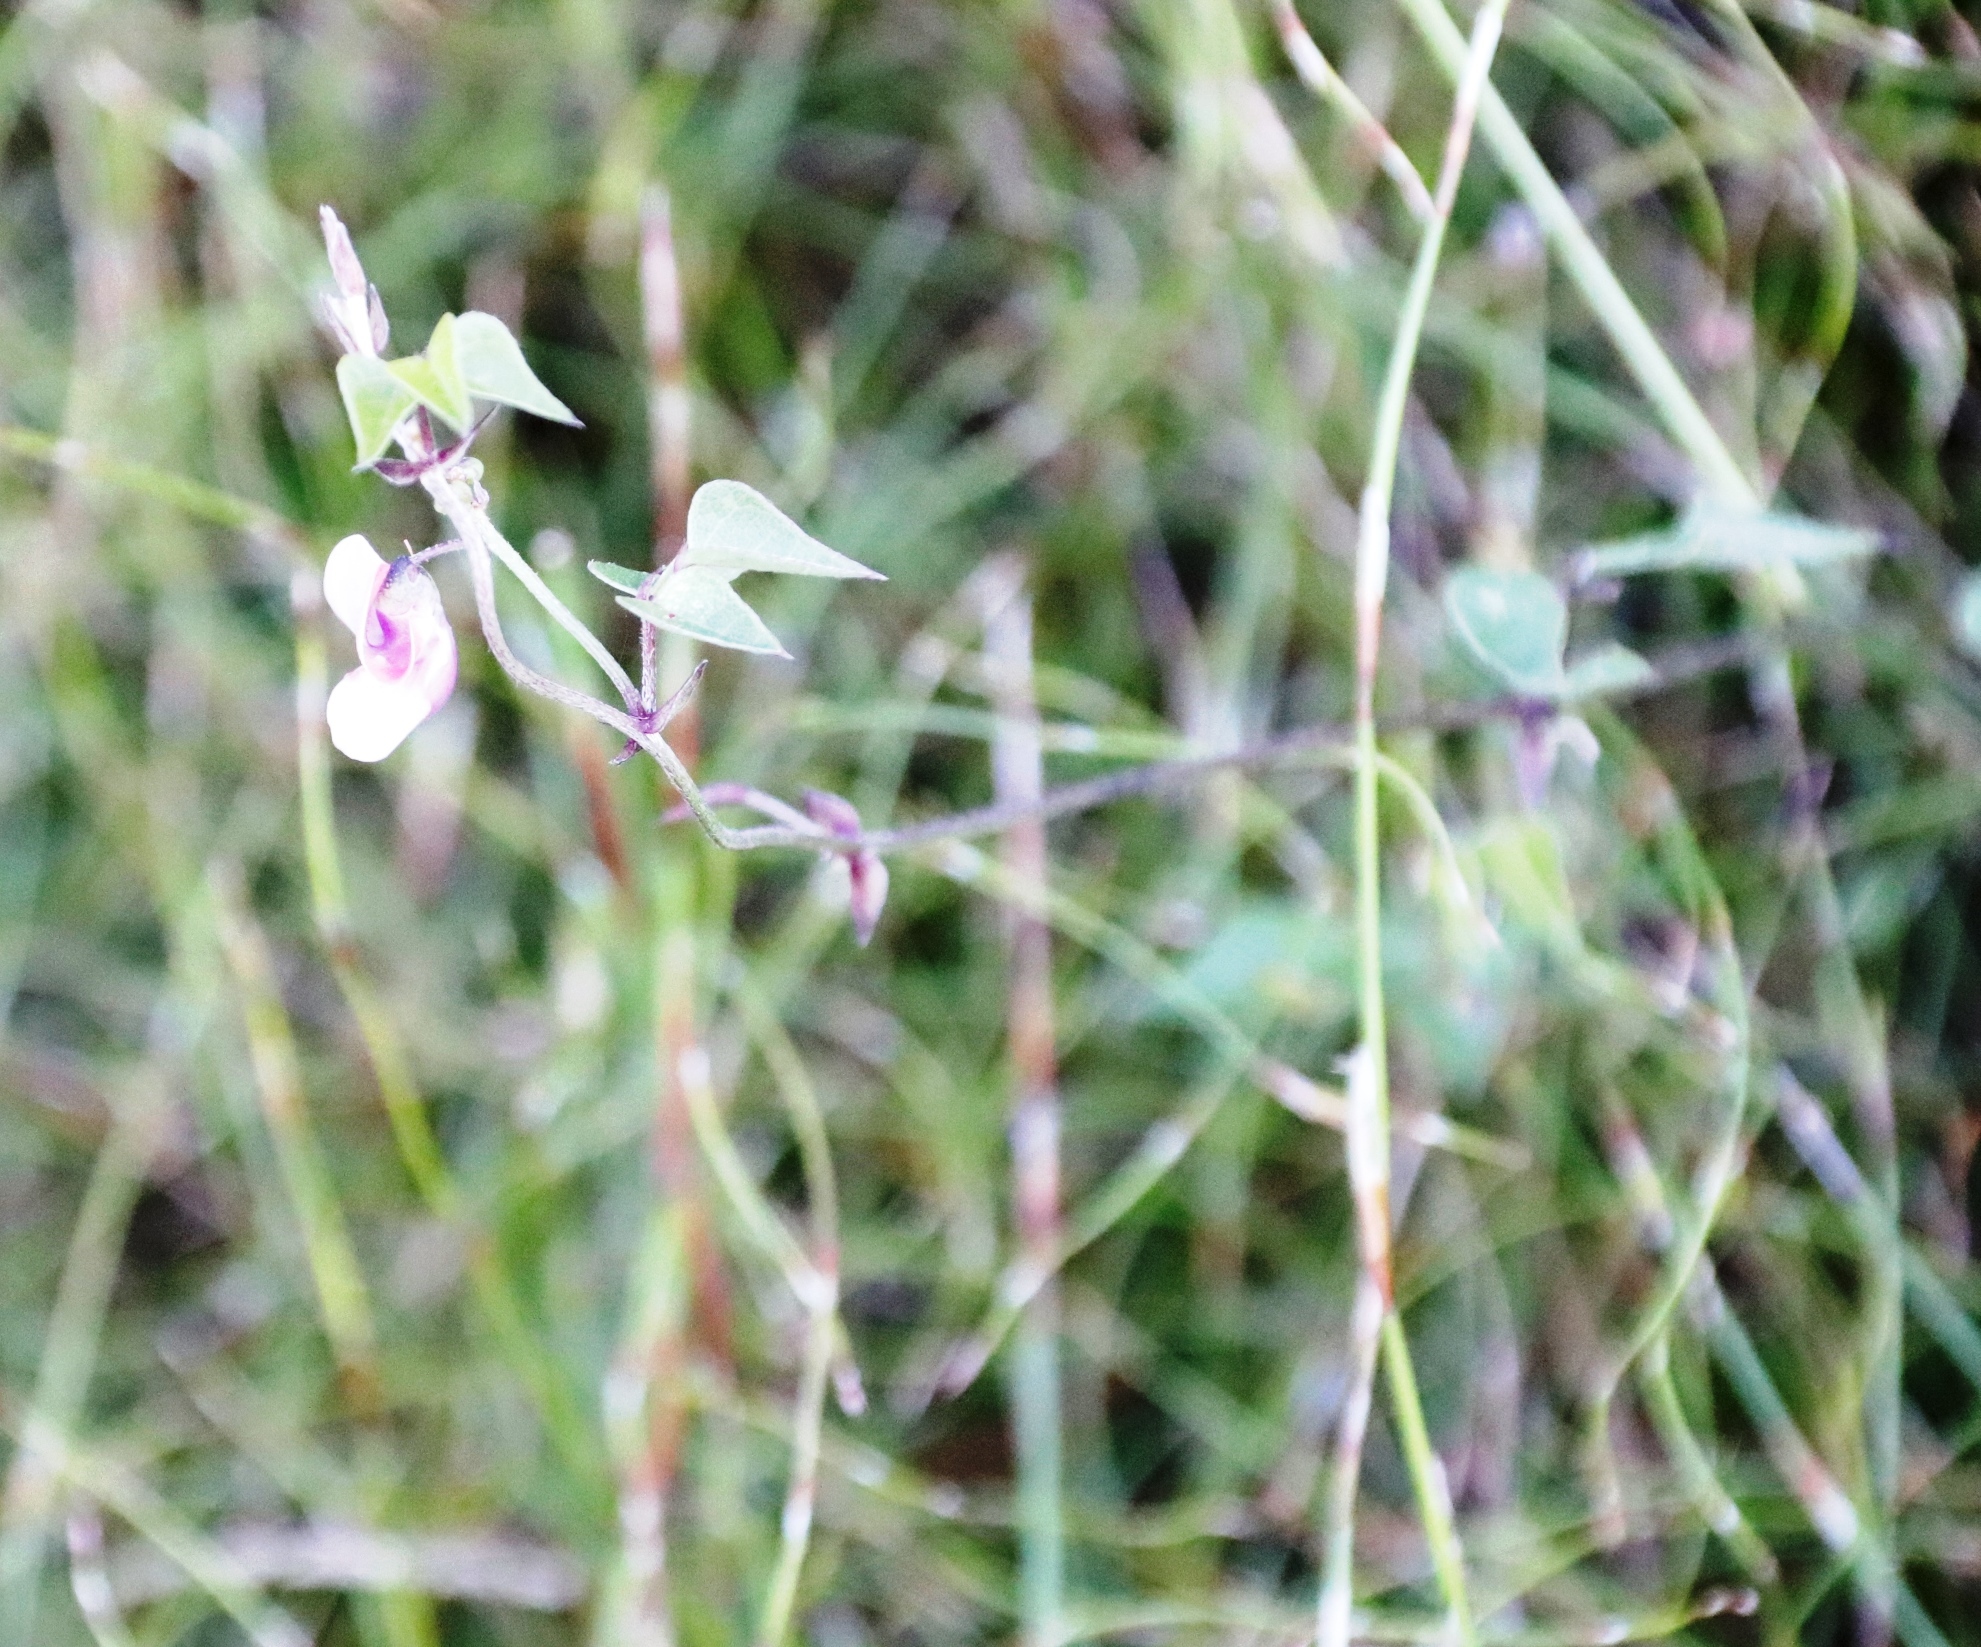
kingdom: Plantae
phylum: Tracheophyta
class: Magnoliopsida
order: Fabales
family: Fabaceae
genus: Dipogon
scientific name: Dipogon lignosus
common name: Okie bean
